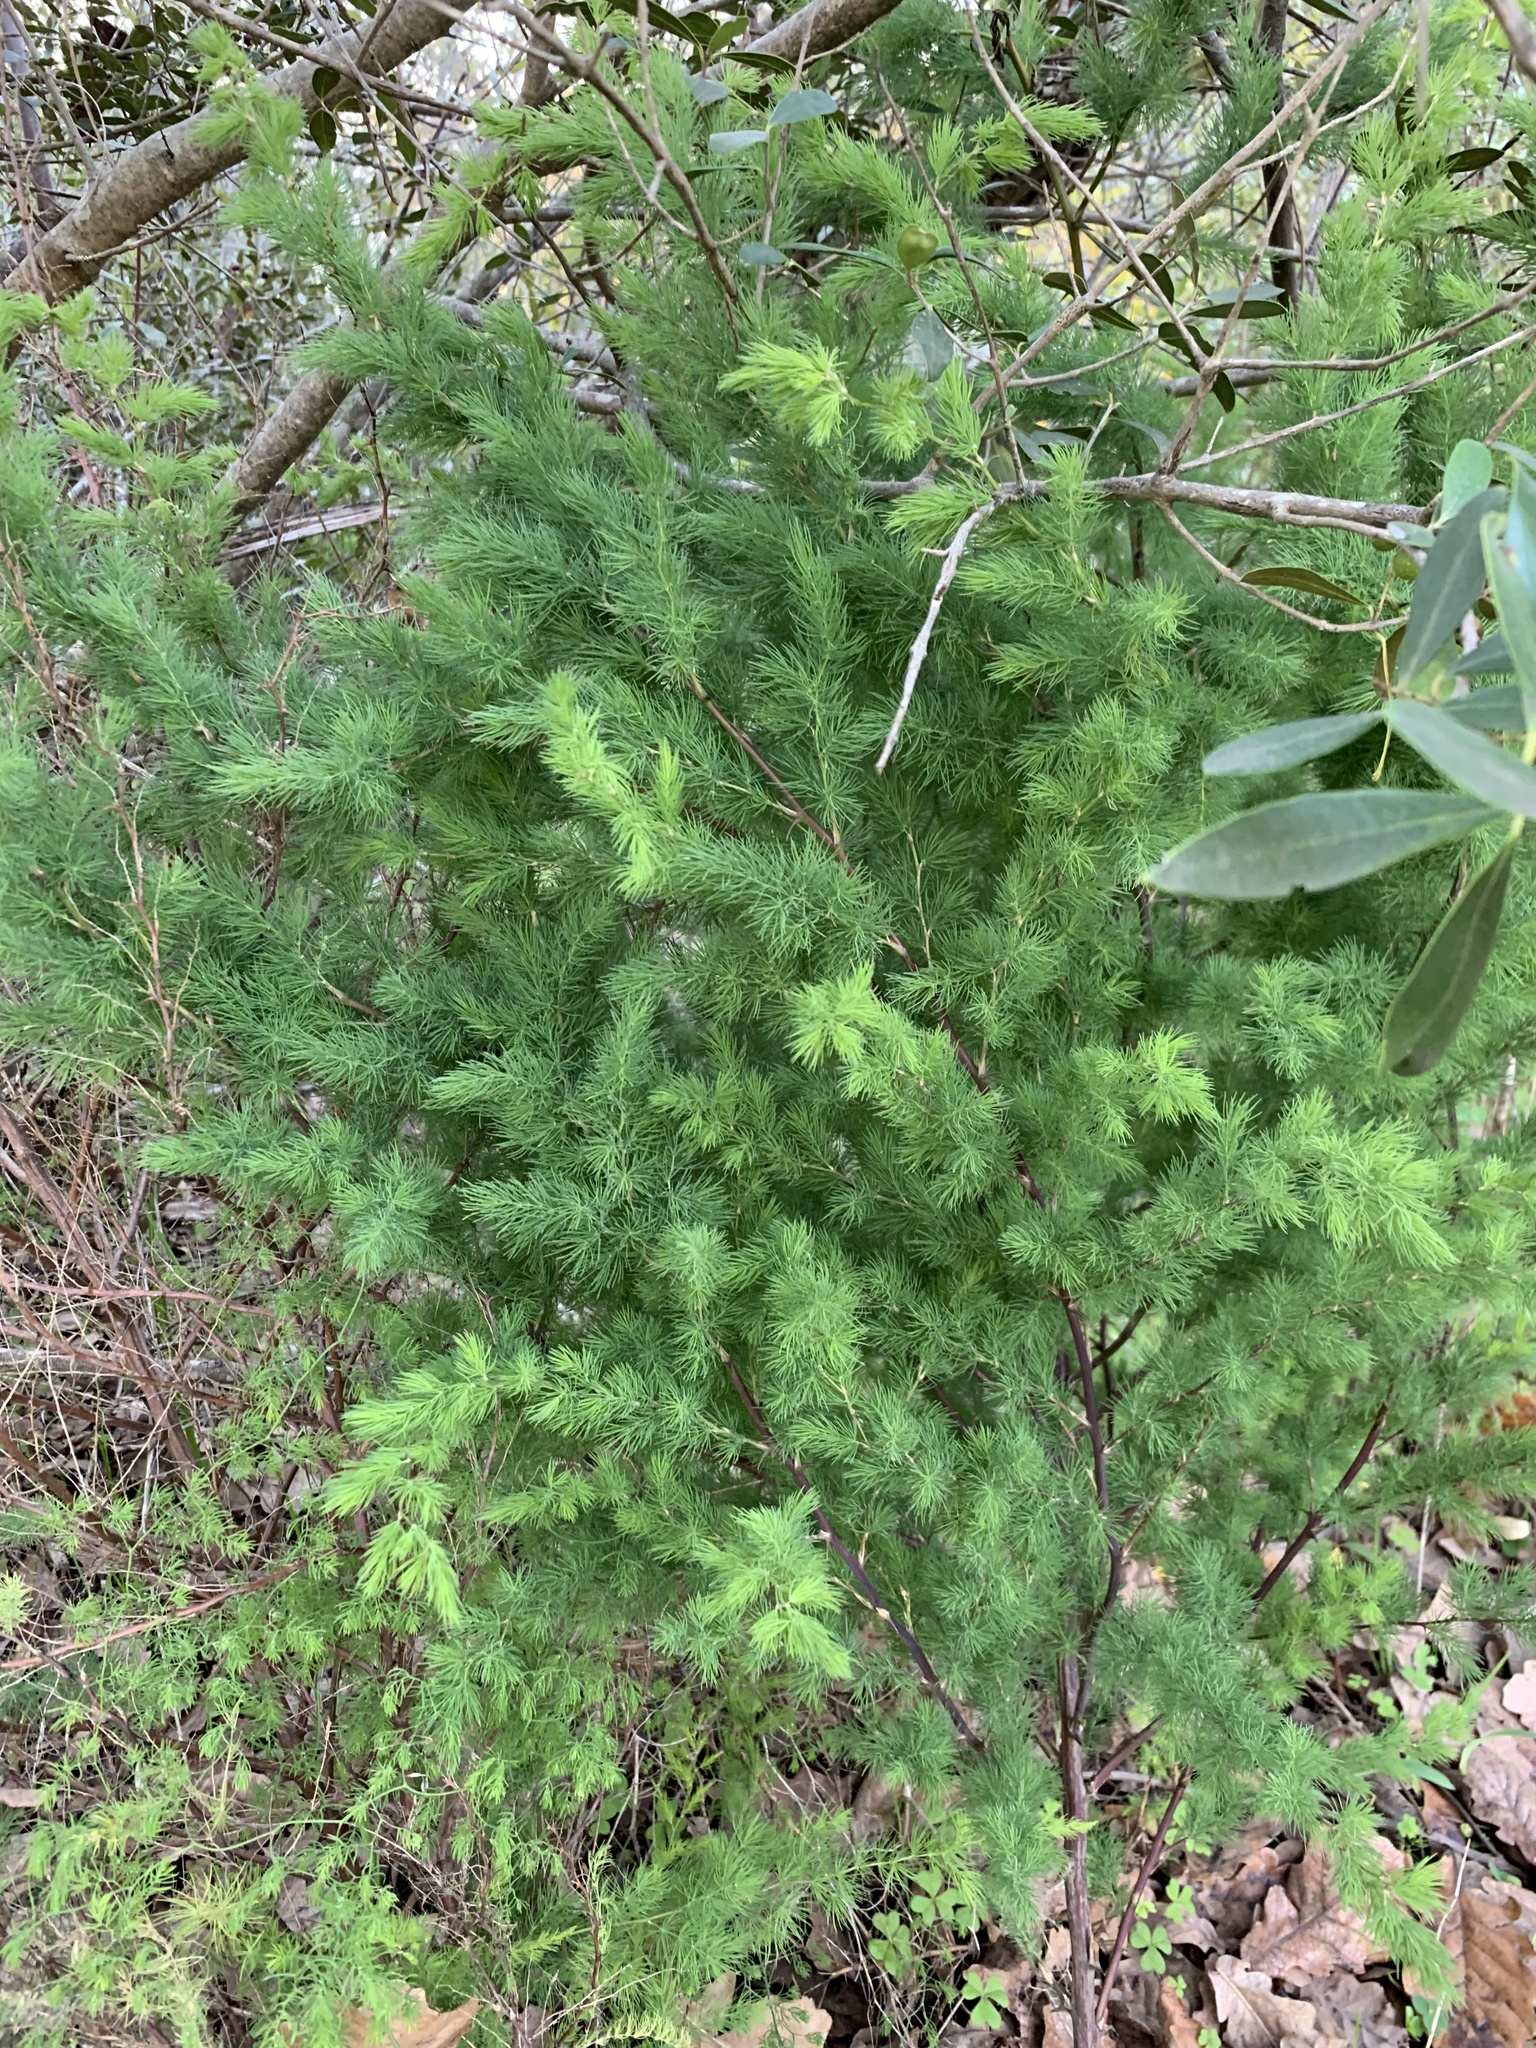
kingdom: Plantae
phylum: Tracheophyta
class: Liliopsida
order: Asparagales
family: Asparagaceae
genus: Asparagus
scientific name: Asparagus rubicundus
